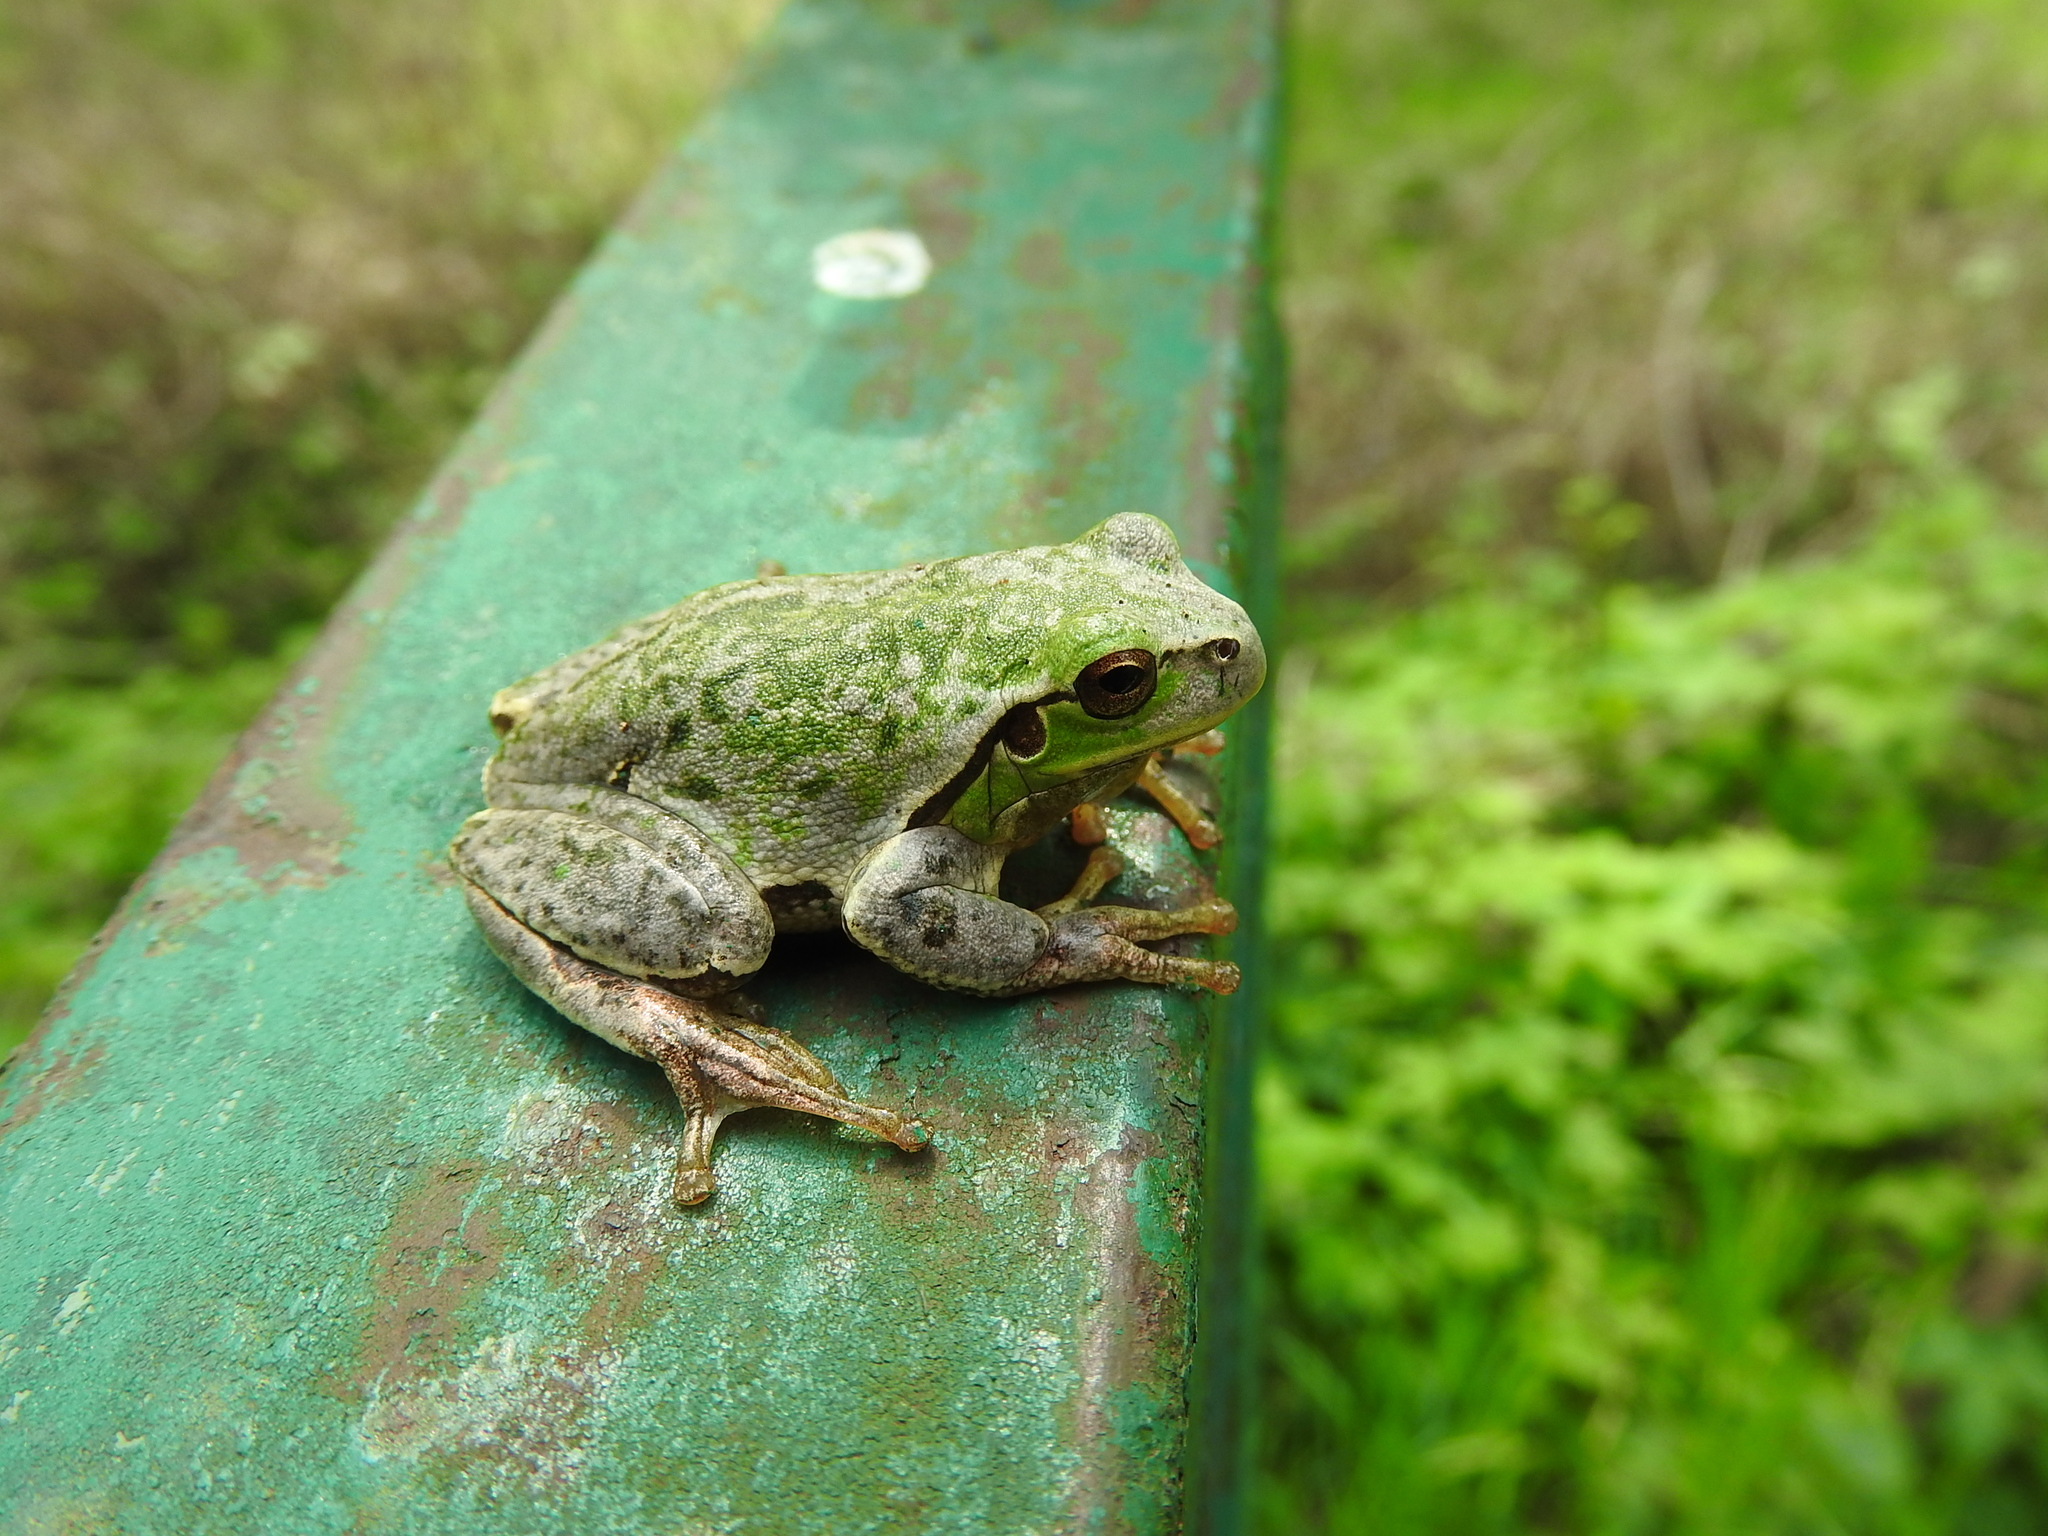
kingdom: Animalia
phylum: Chordata
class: Amphibia
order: Anura
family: Hylidae
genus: Hyla
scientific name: Hyla intermedia
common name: Italian tree frog
